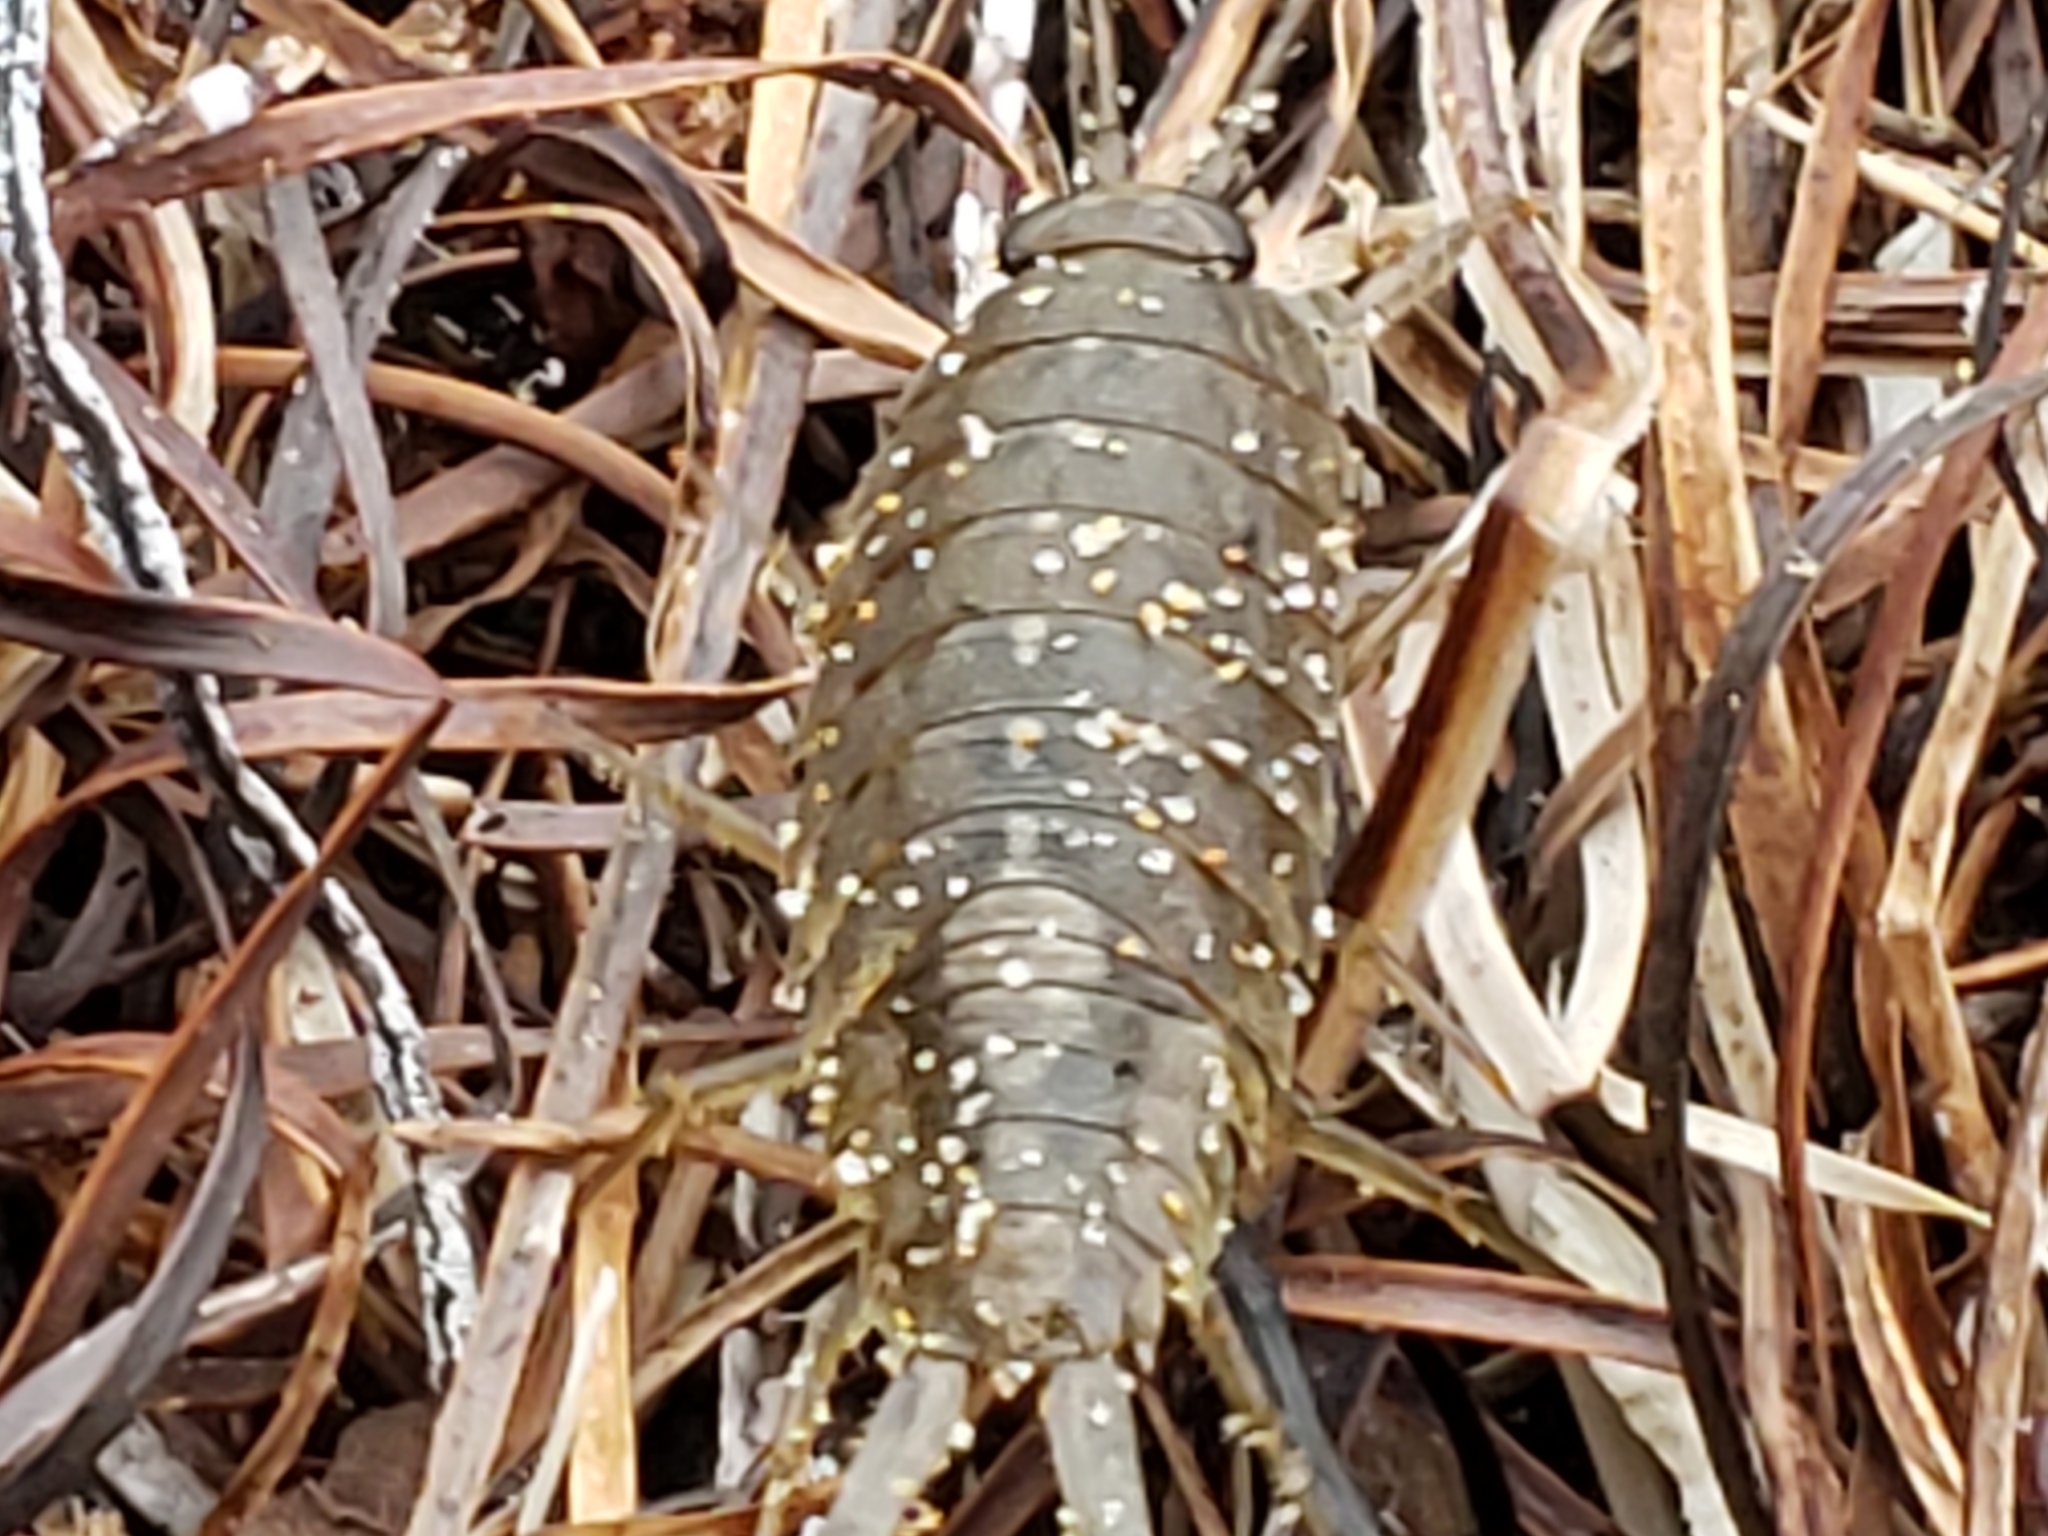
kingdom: Animalia
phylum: Arthropoda
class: Malacostraca
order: Isopoda
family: Ligiidae
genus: Ligia
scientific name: Ligia occidentalis
